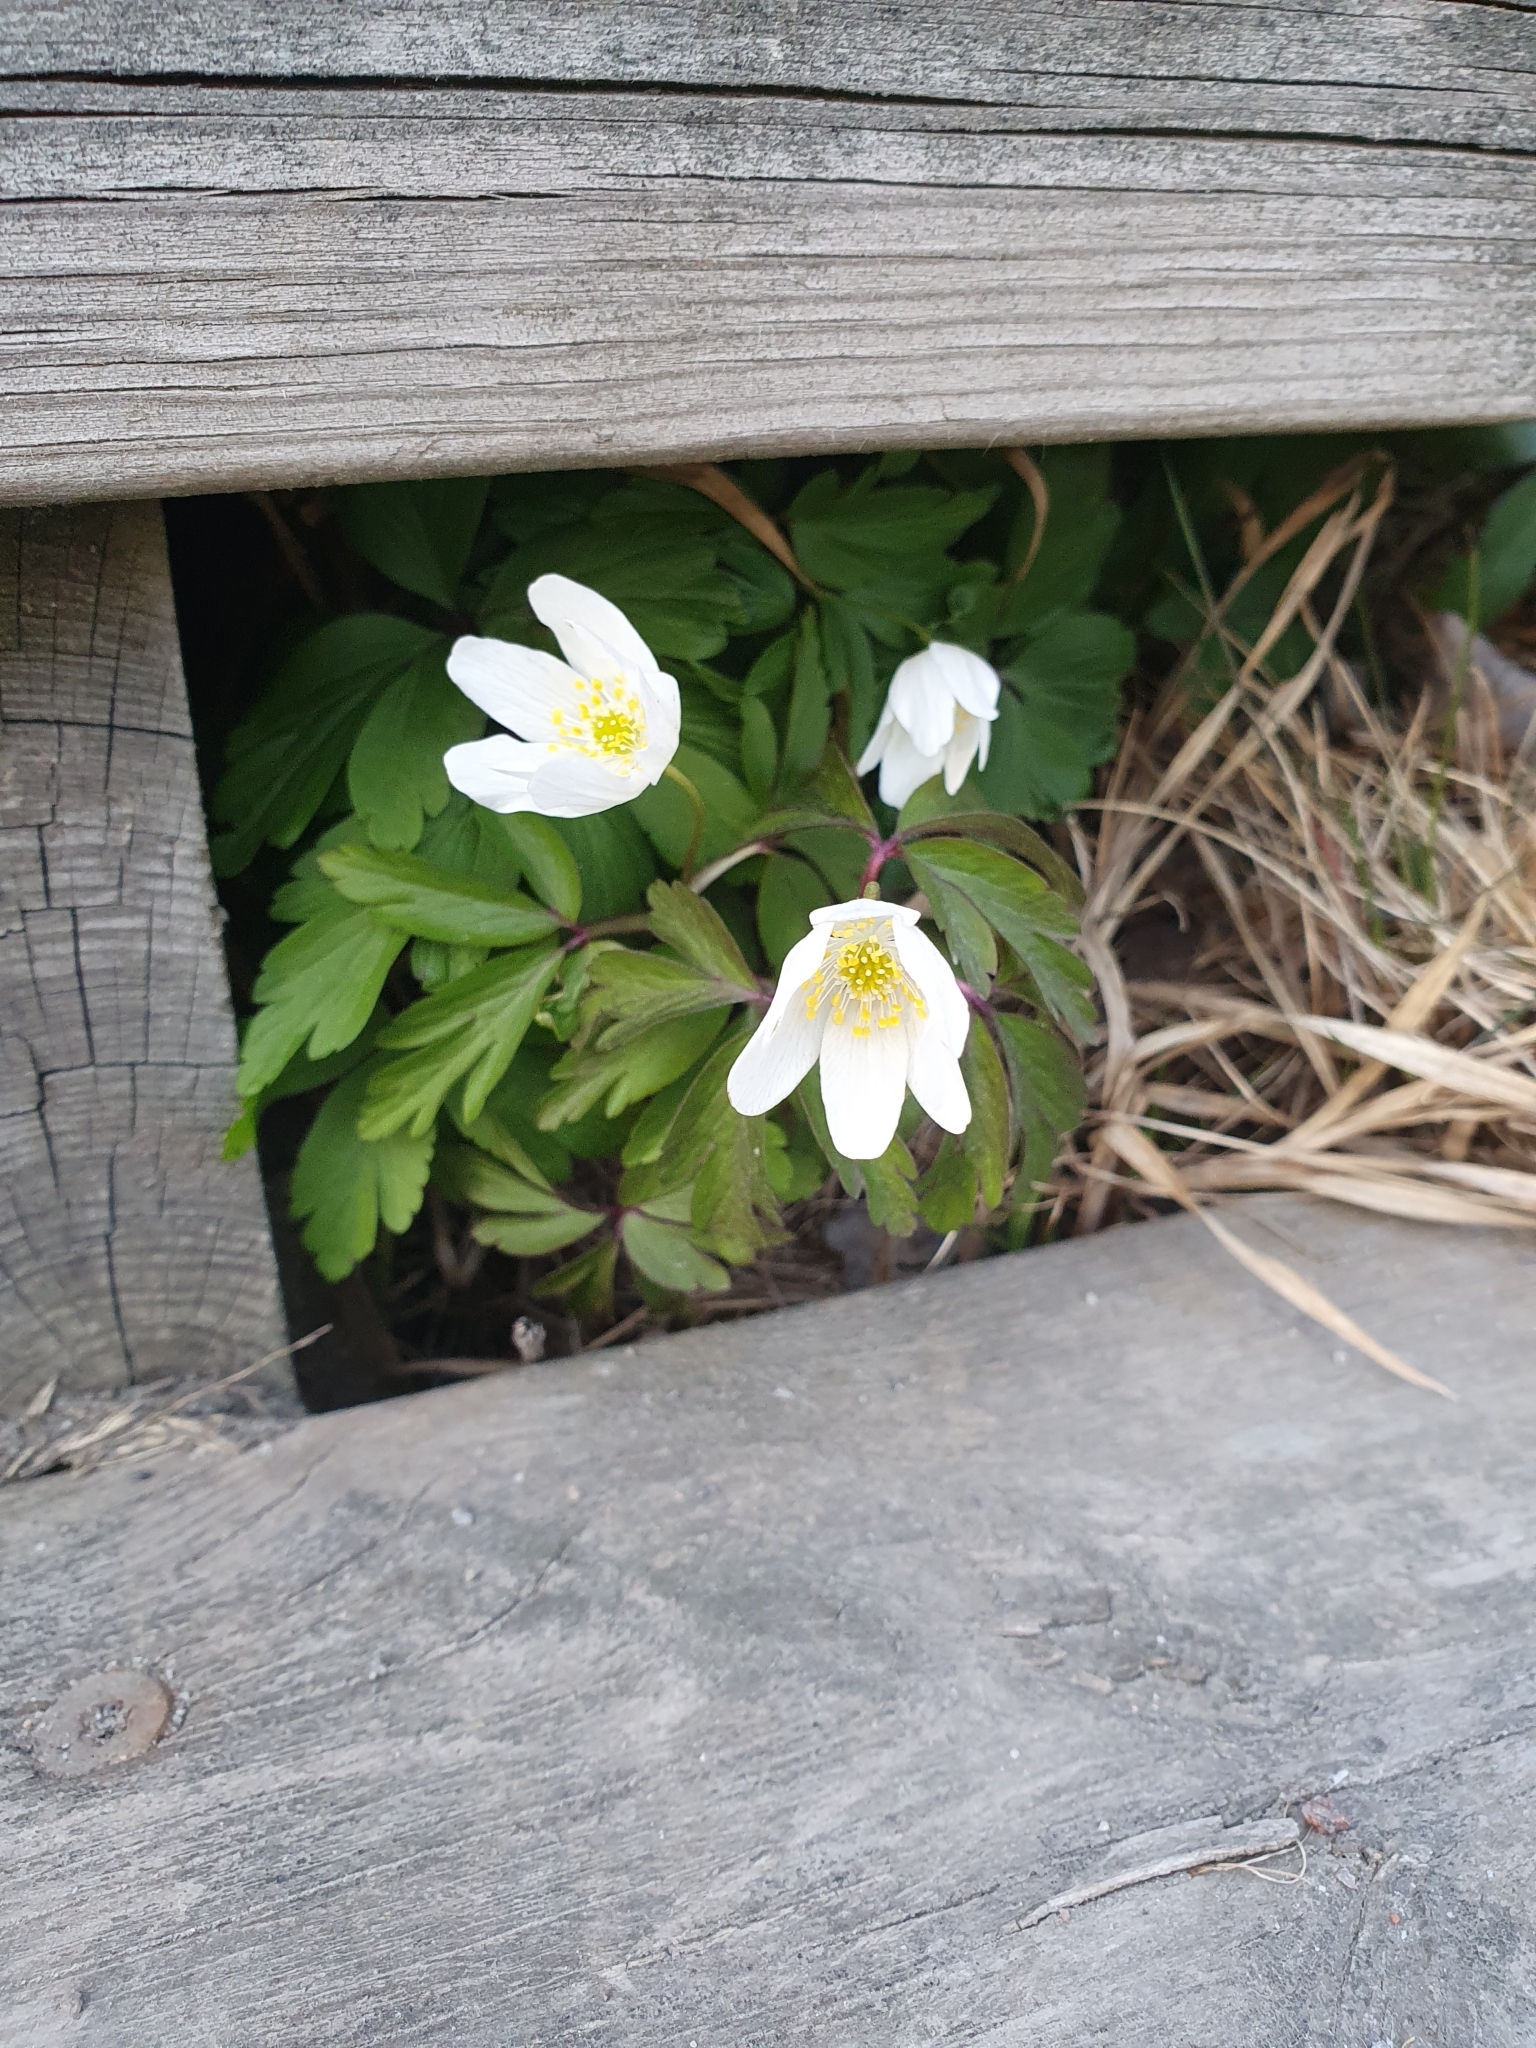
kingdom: Plantae
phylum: Tracheophyta
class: Magnoliopsida
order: Ranunculales
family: Ranunculaceae
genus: Anemone
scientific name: Anemone nemorosa
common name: Wood anemone
